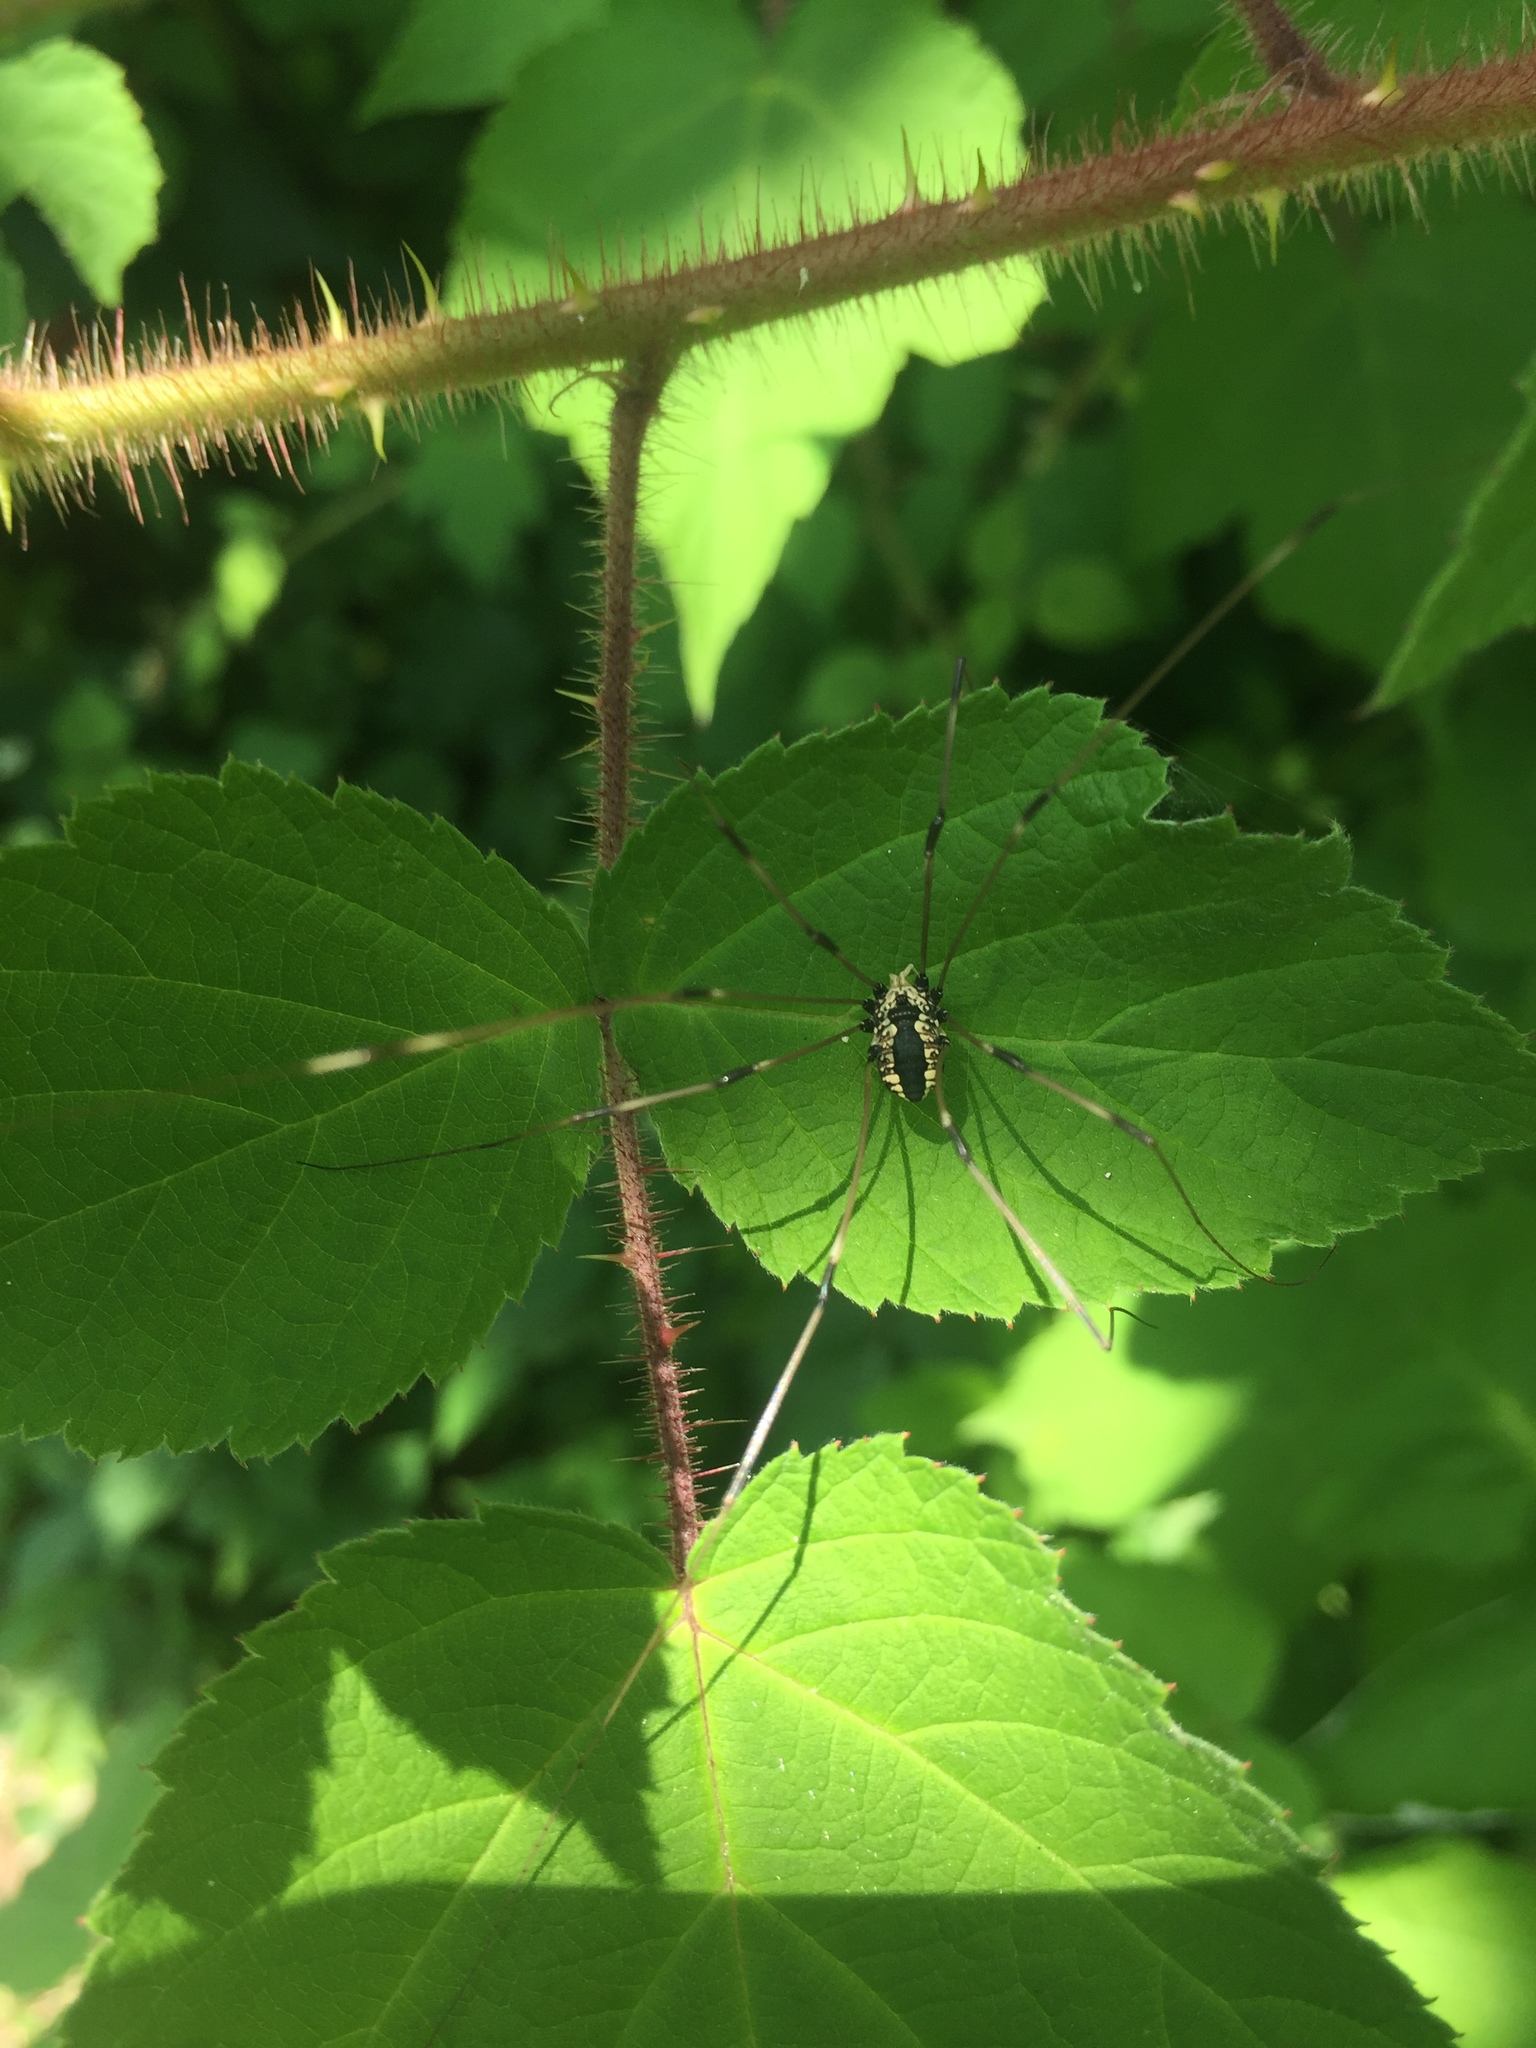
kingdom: Animalia
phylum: Arthropoda
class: Arachnida
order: Opiliones
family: Sclerosomatidae
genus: Leiobunum
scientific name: Leiobunum vittatum
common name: Eastern harvestman
